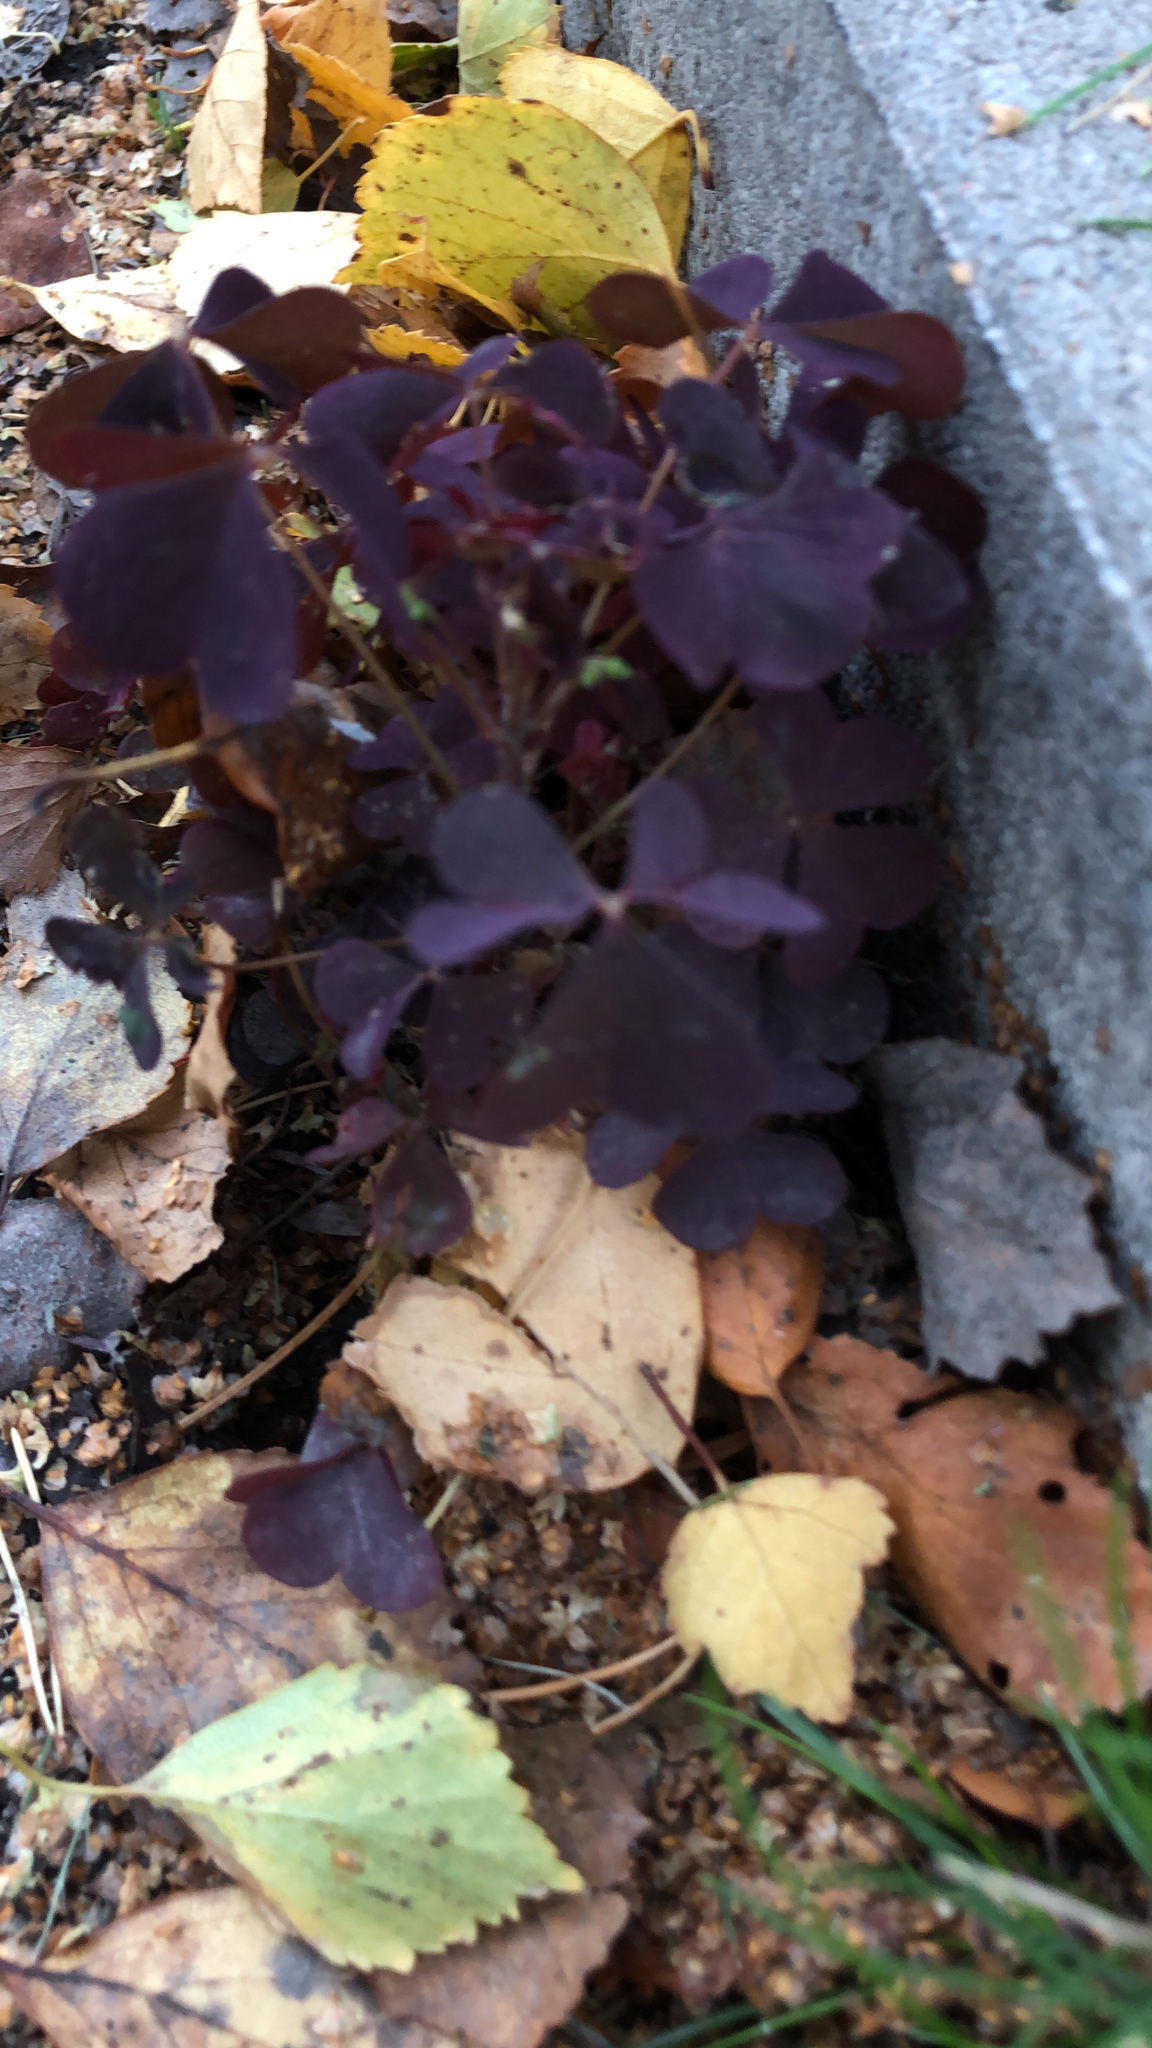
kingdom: Plantae
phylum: Tracheophyta
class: Magnoliopsida
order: Oxalidales
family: Oxalidaceae
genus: Oxalis
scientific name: Oxalis stricta
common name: Upright yellow-sorrel
